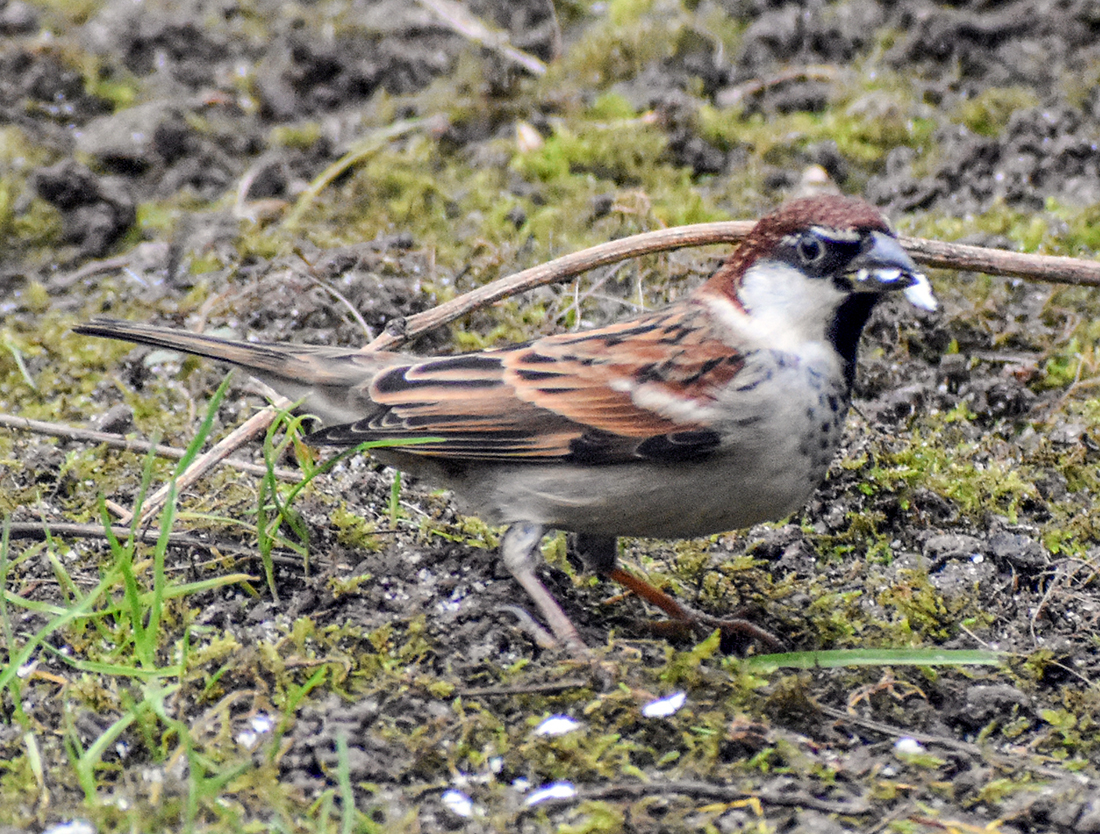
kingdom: Animalia
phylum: Chordata
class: Aves
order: Passeriformes
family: Passeridae
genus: Passer
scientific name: Passer italiae
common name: Italian sparrow
